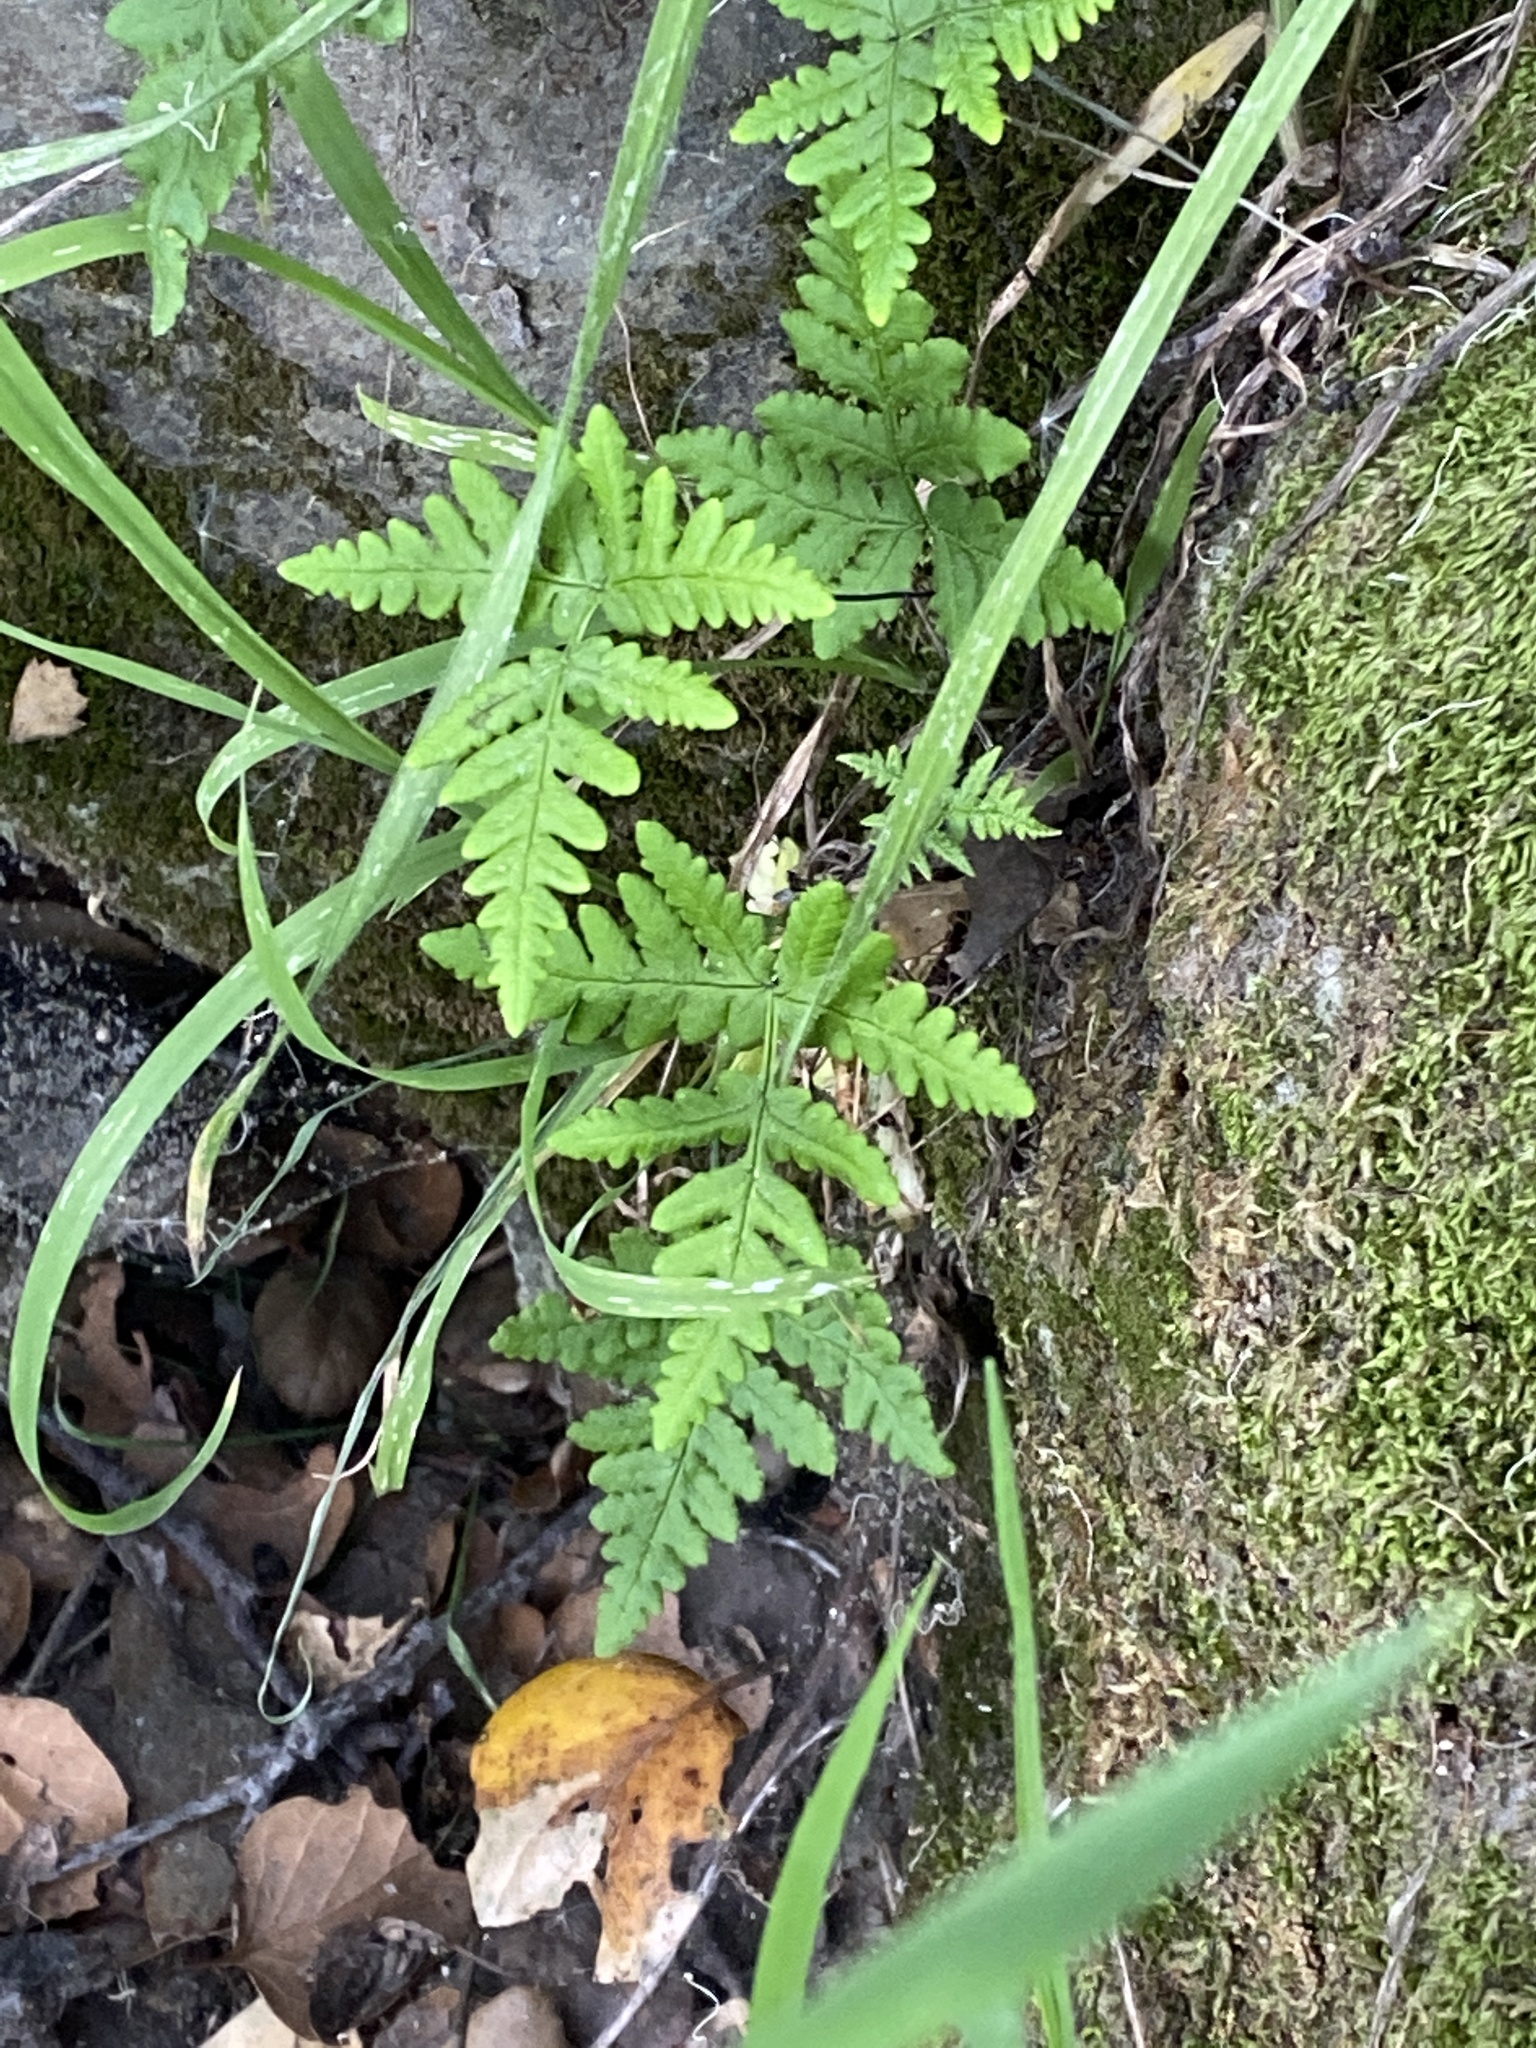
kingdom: Plantae
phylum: Tracheophyta
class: Polypodiopsida
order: Polypodiales
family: Pteridaceae
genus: Pentagramma
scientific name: Pentagramma triangularis
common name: Gold fern
